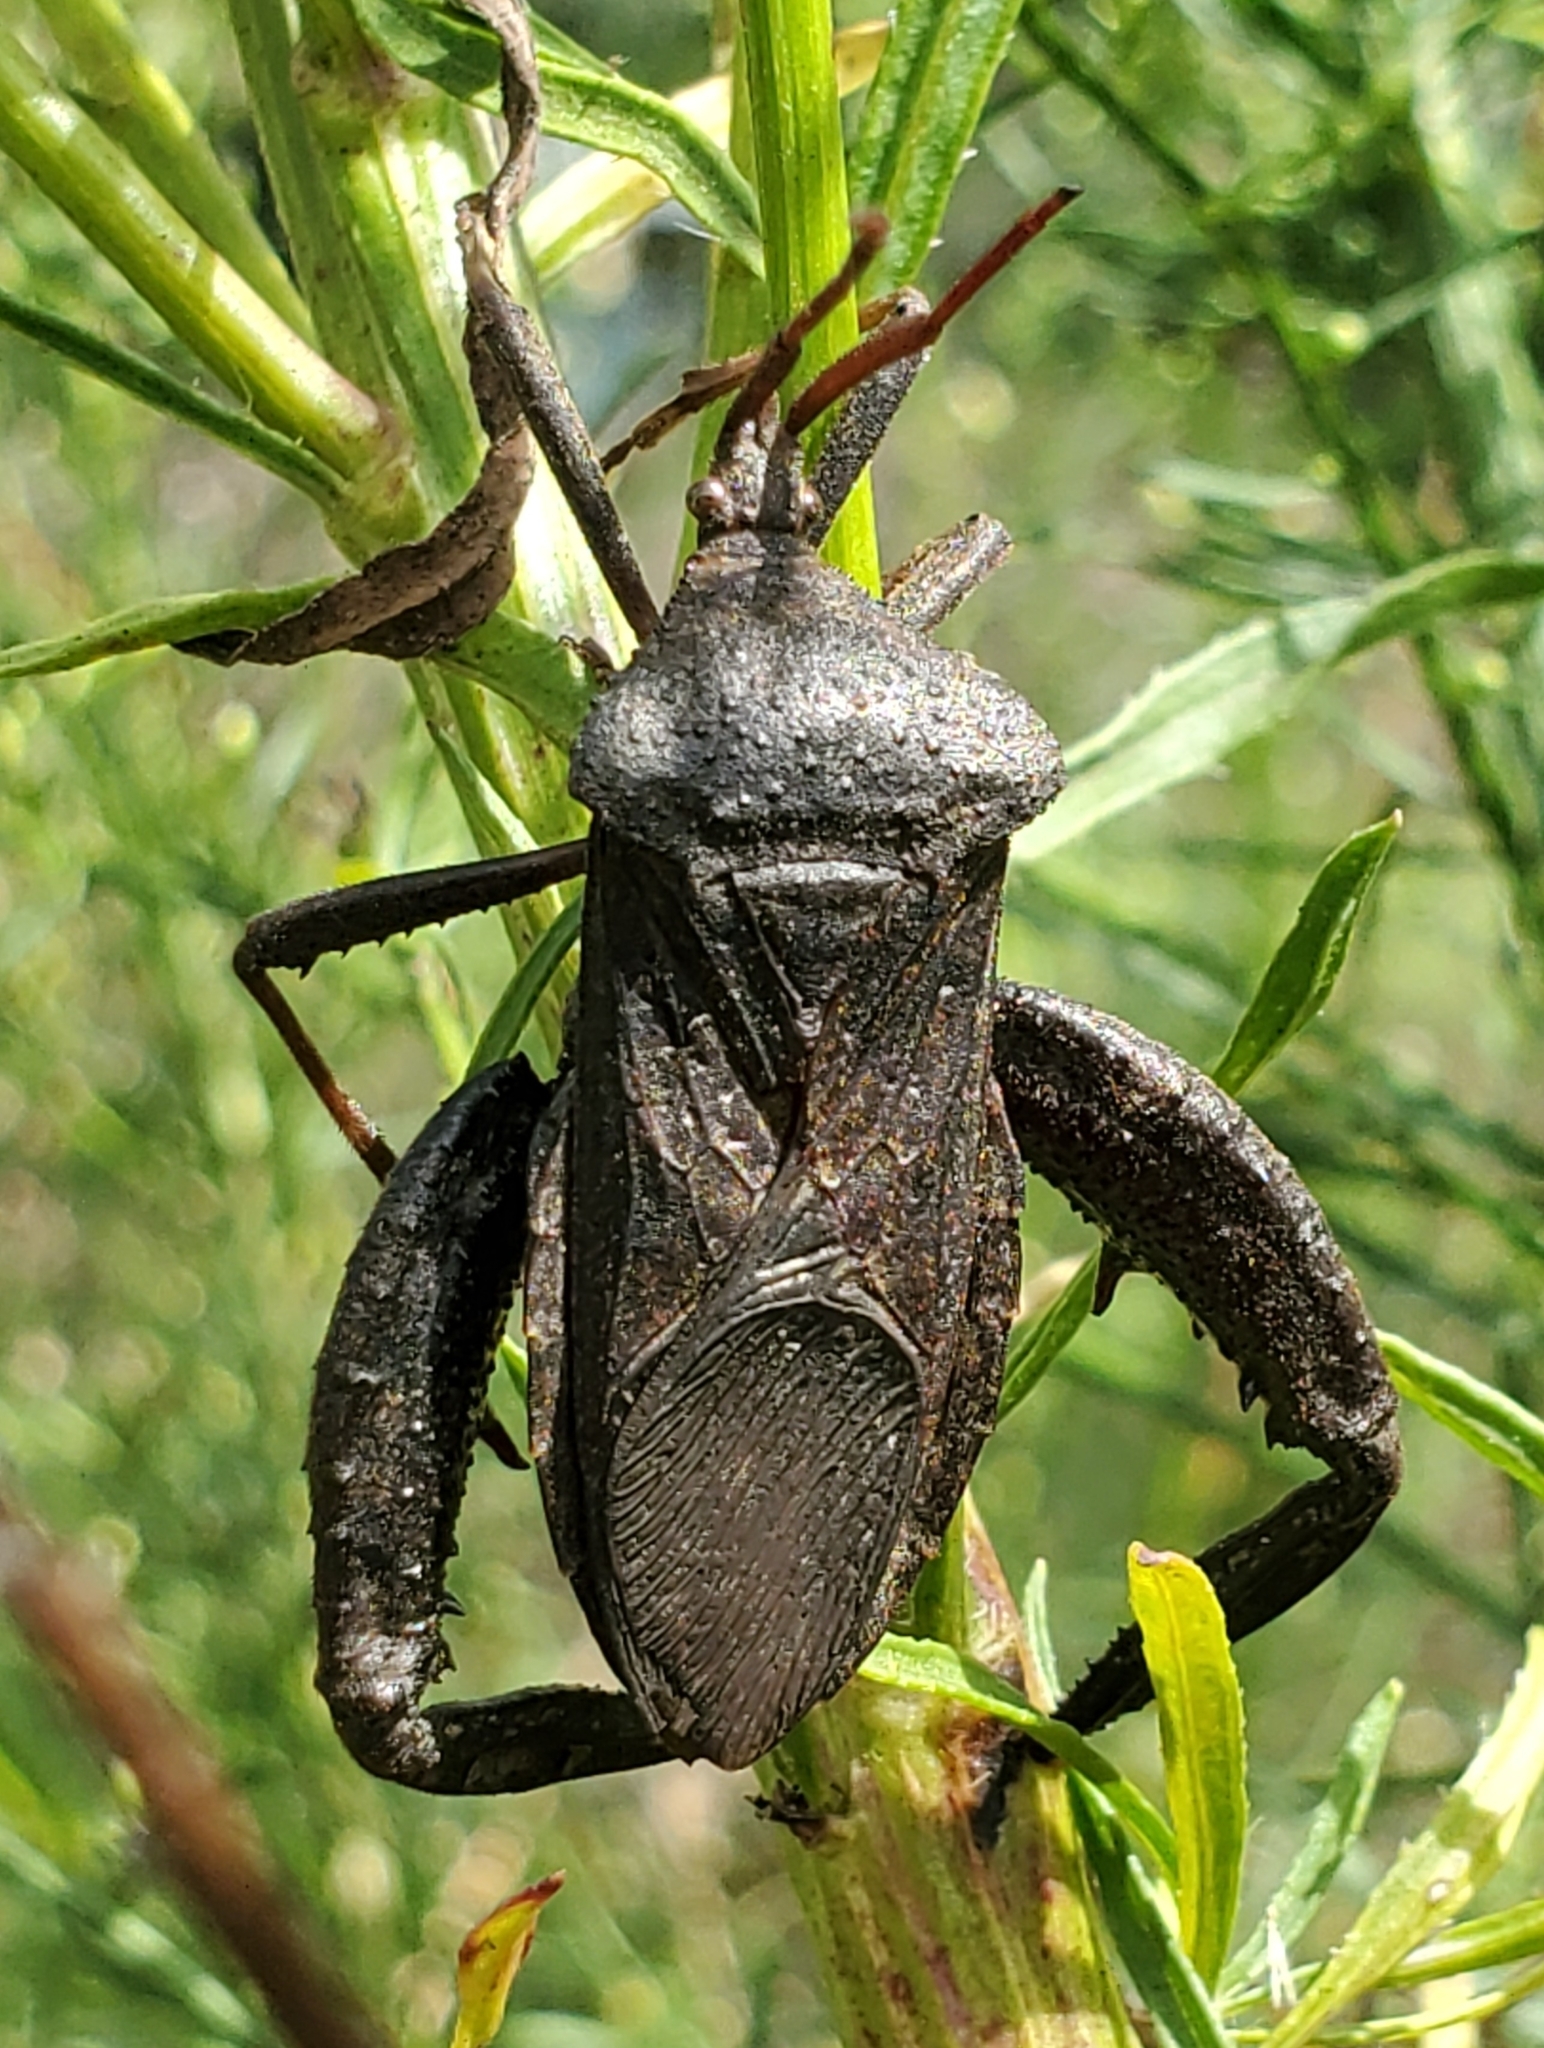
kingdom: Animalia
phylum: Arthropoda
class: Insecta
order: Hemiptera
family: Coreidae
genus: Acanthocephala
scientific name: Acanthocephala femorata
